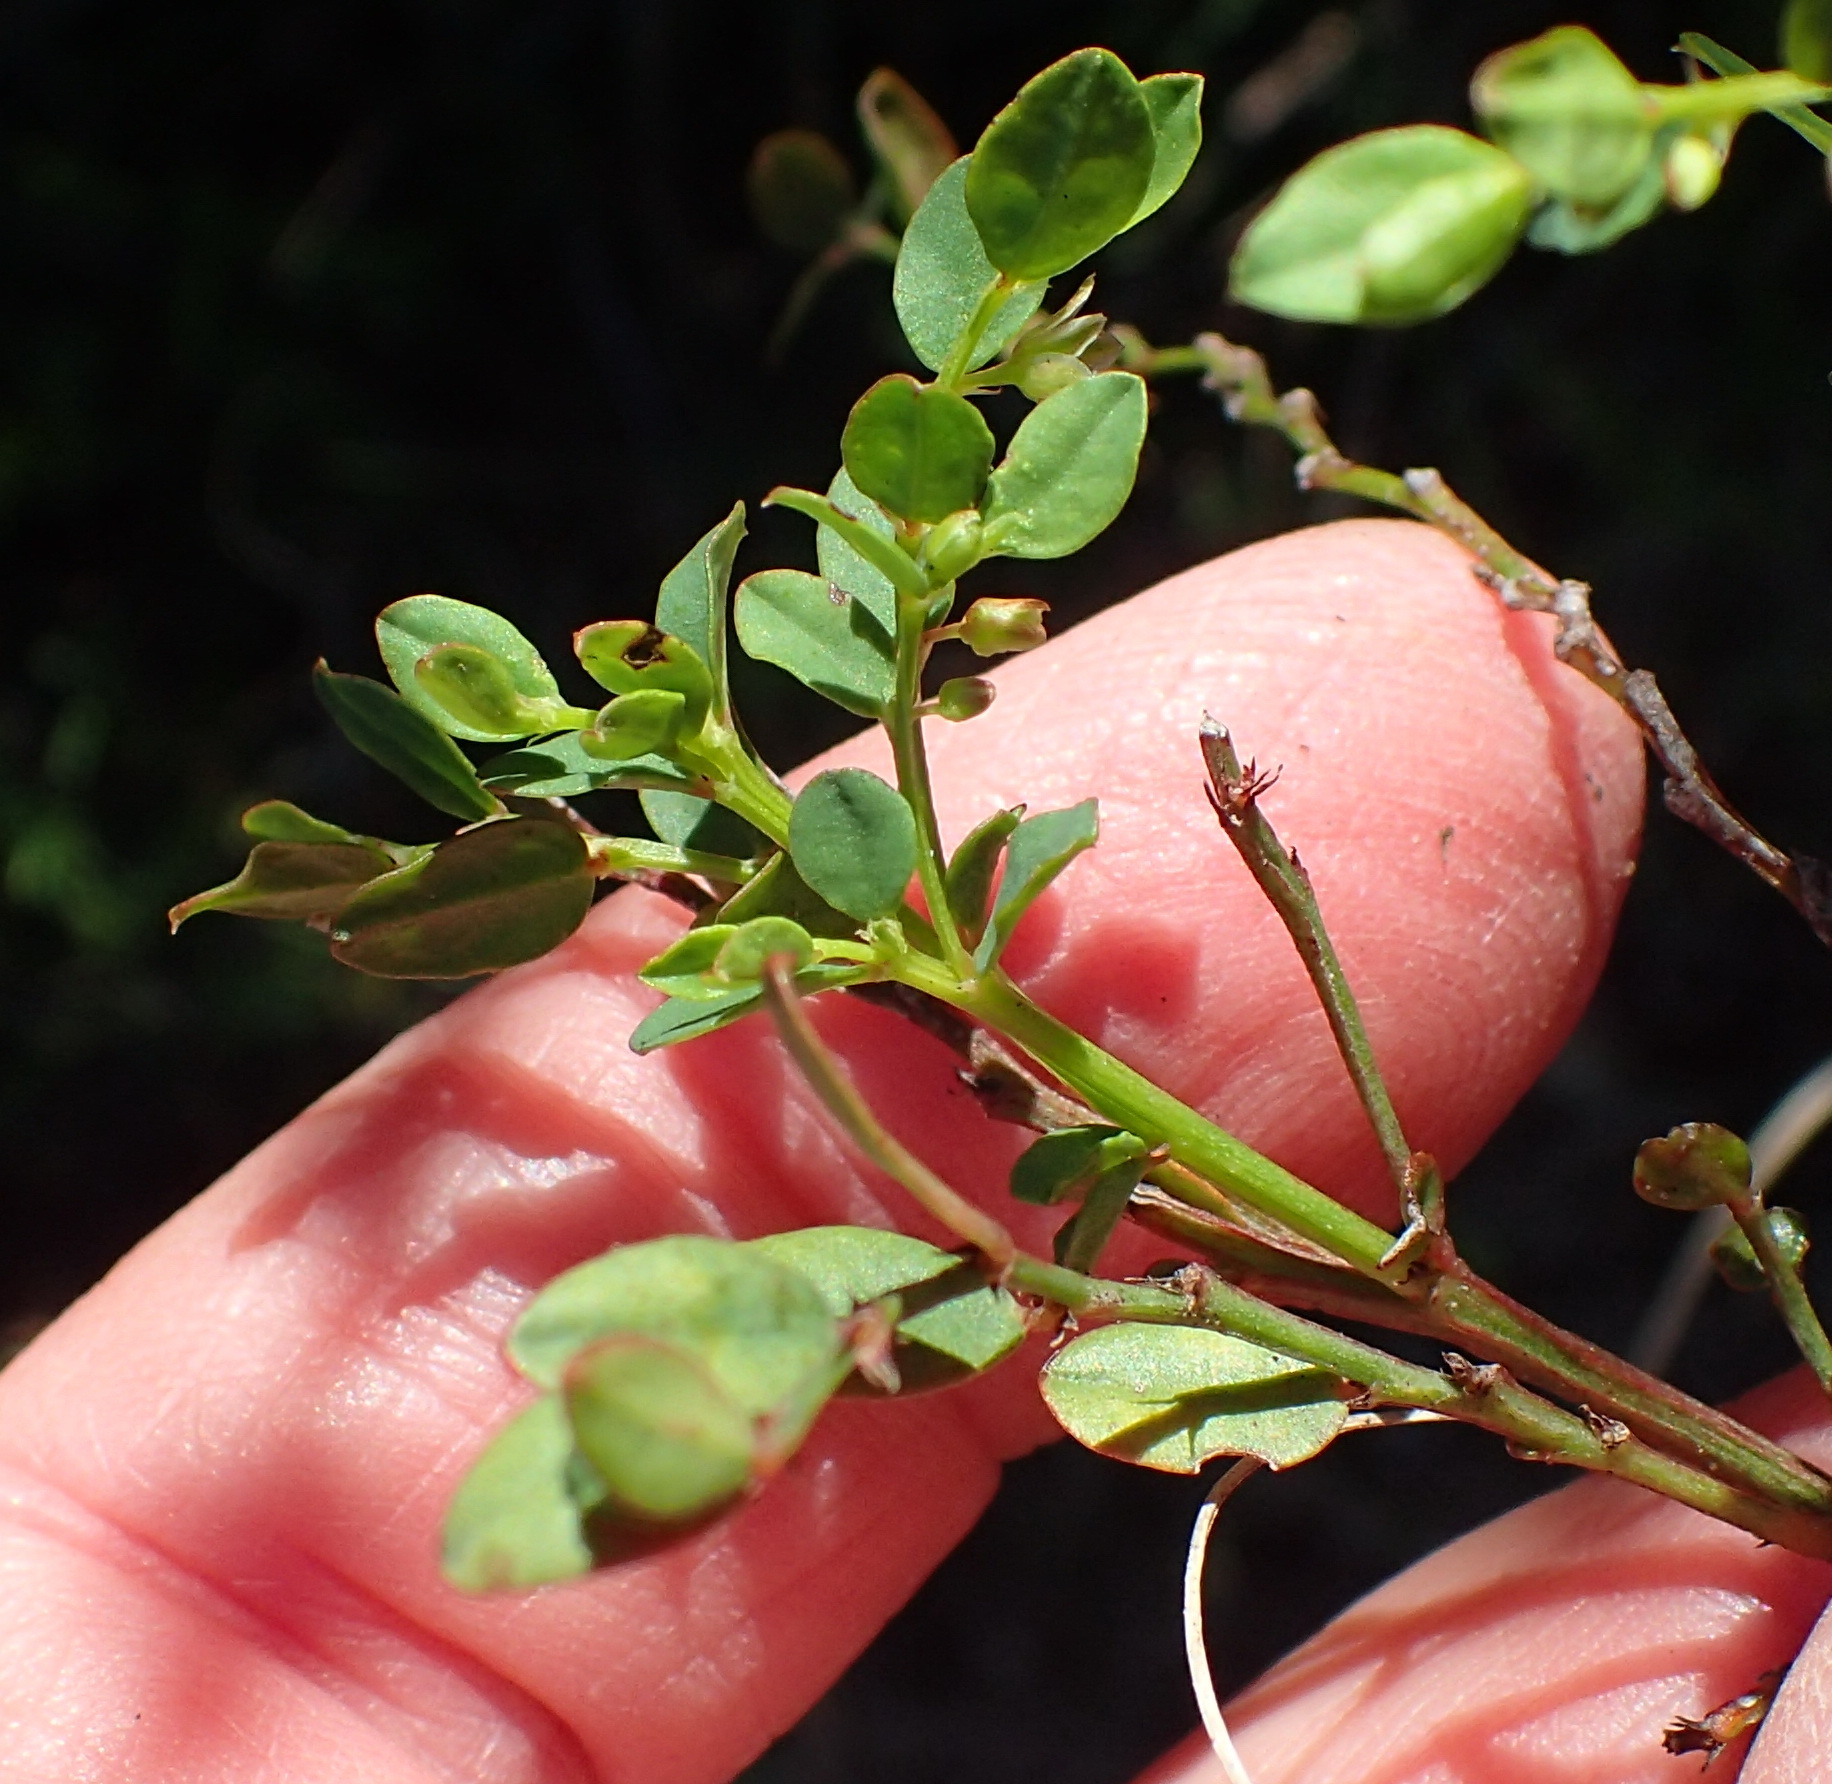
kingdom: Plantae
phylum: Tracheophyta
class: Magnoliopsida
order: Malpighiales
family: Phyllanthaceae
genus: Phyllanthus
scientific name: Phyllanthus
